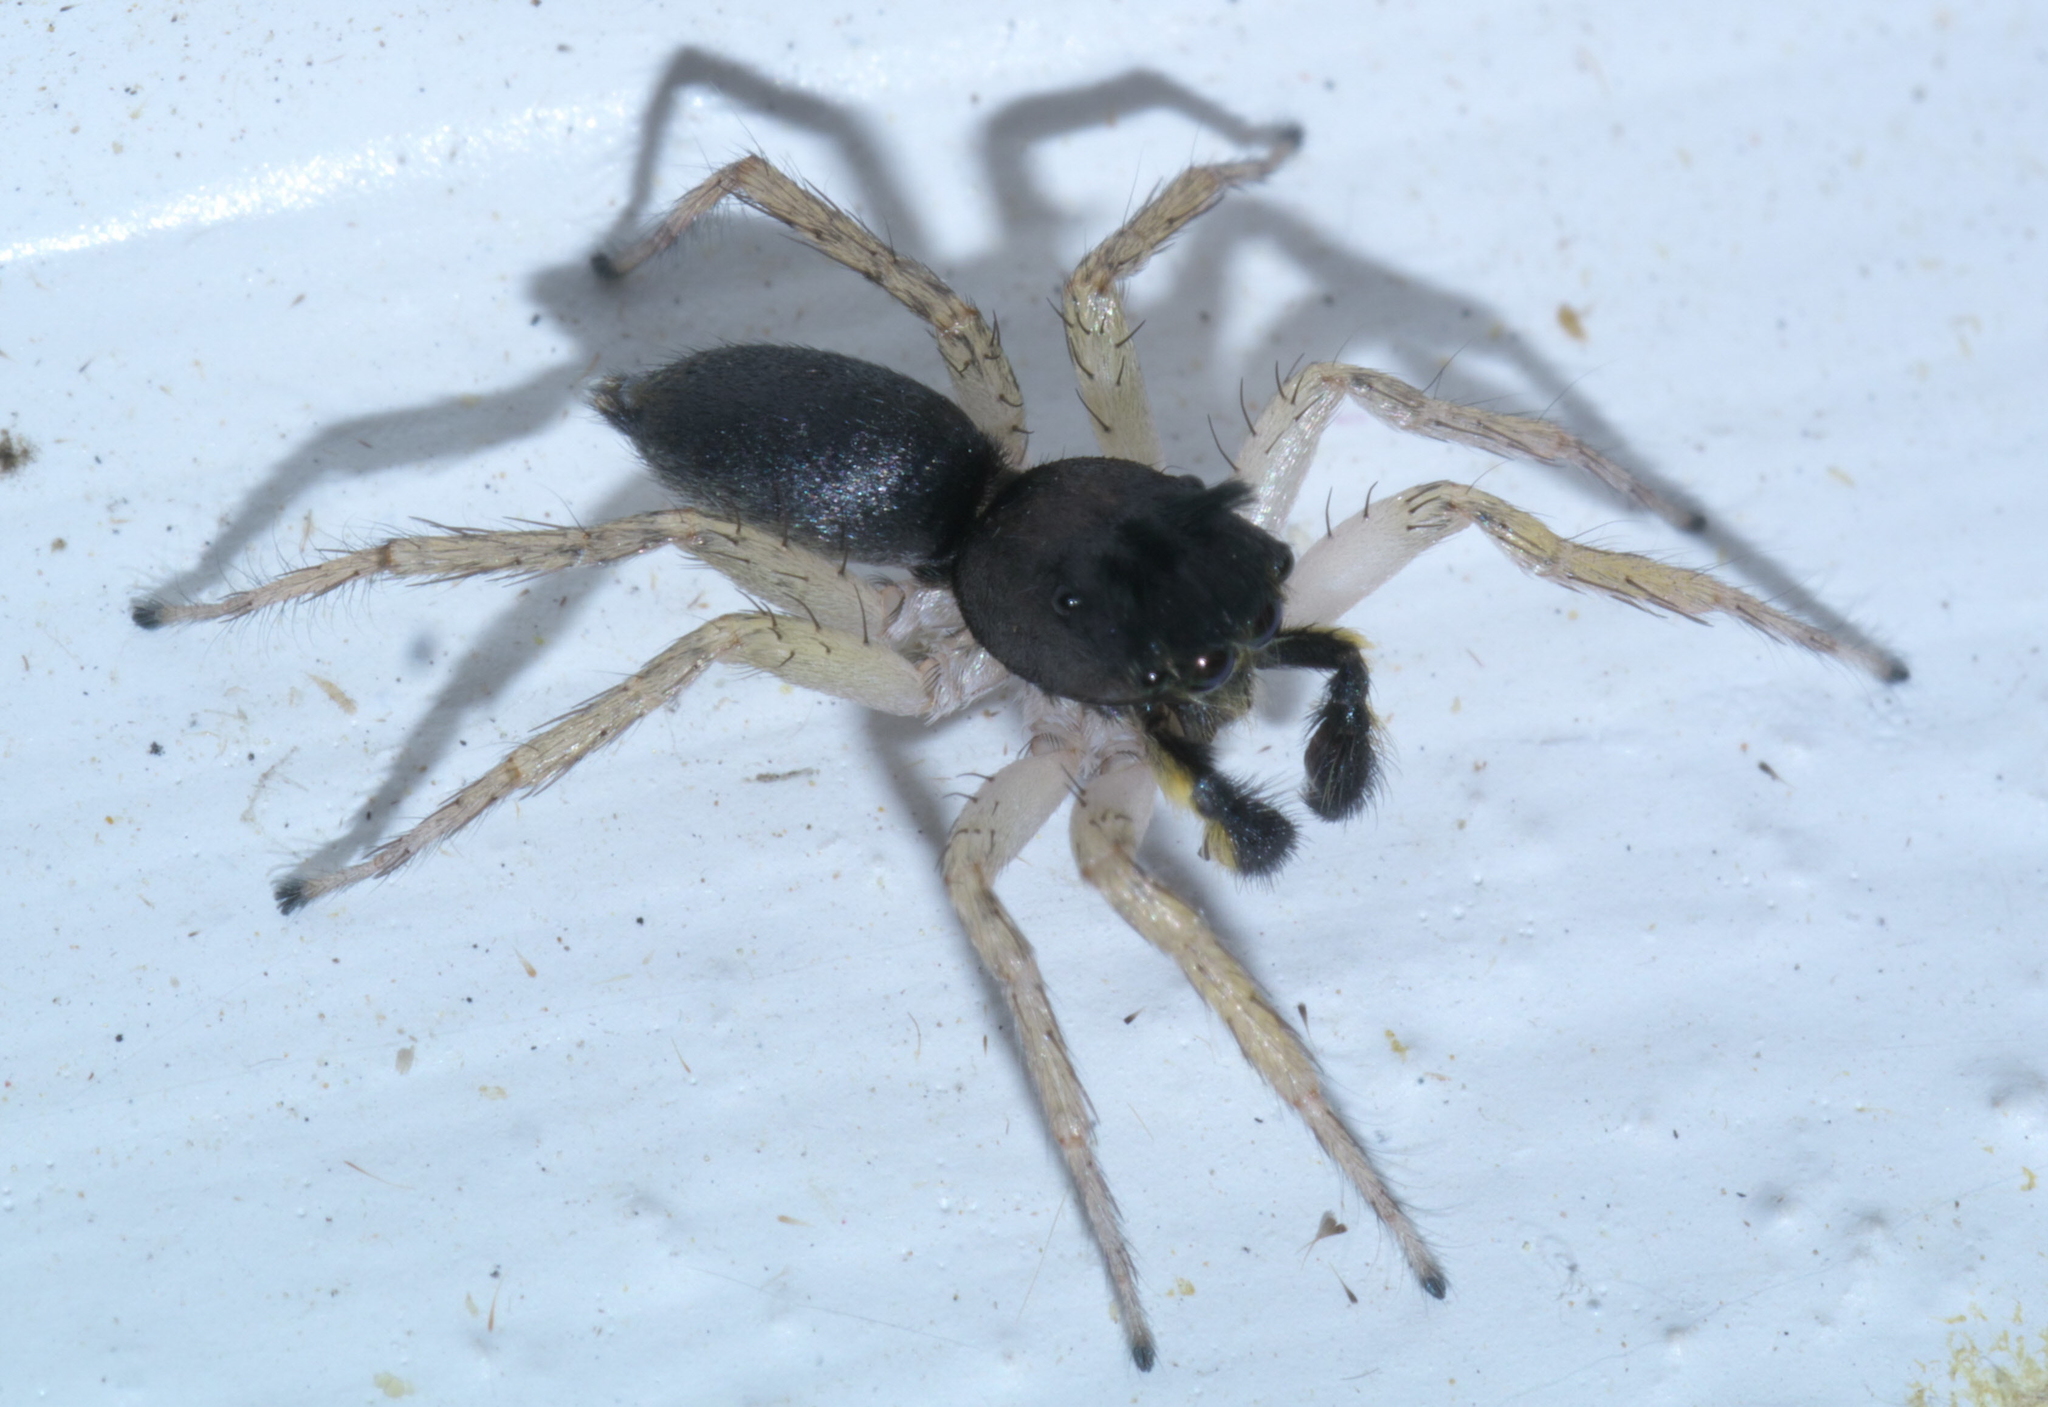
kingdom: Animalia
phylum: Arthropoda
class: Arachnida
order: Araneae
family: Salticidae
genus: Maevia
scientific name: Maevia inclemens
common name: Dimorphic jumper
